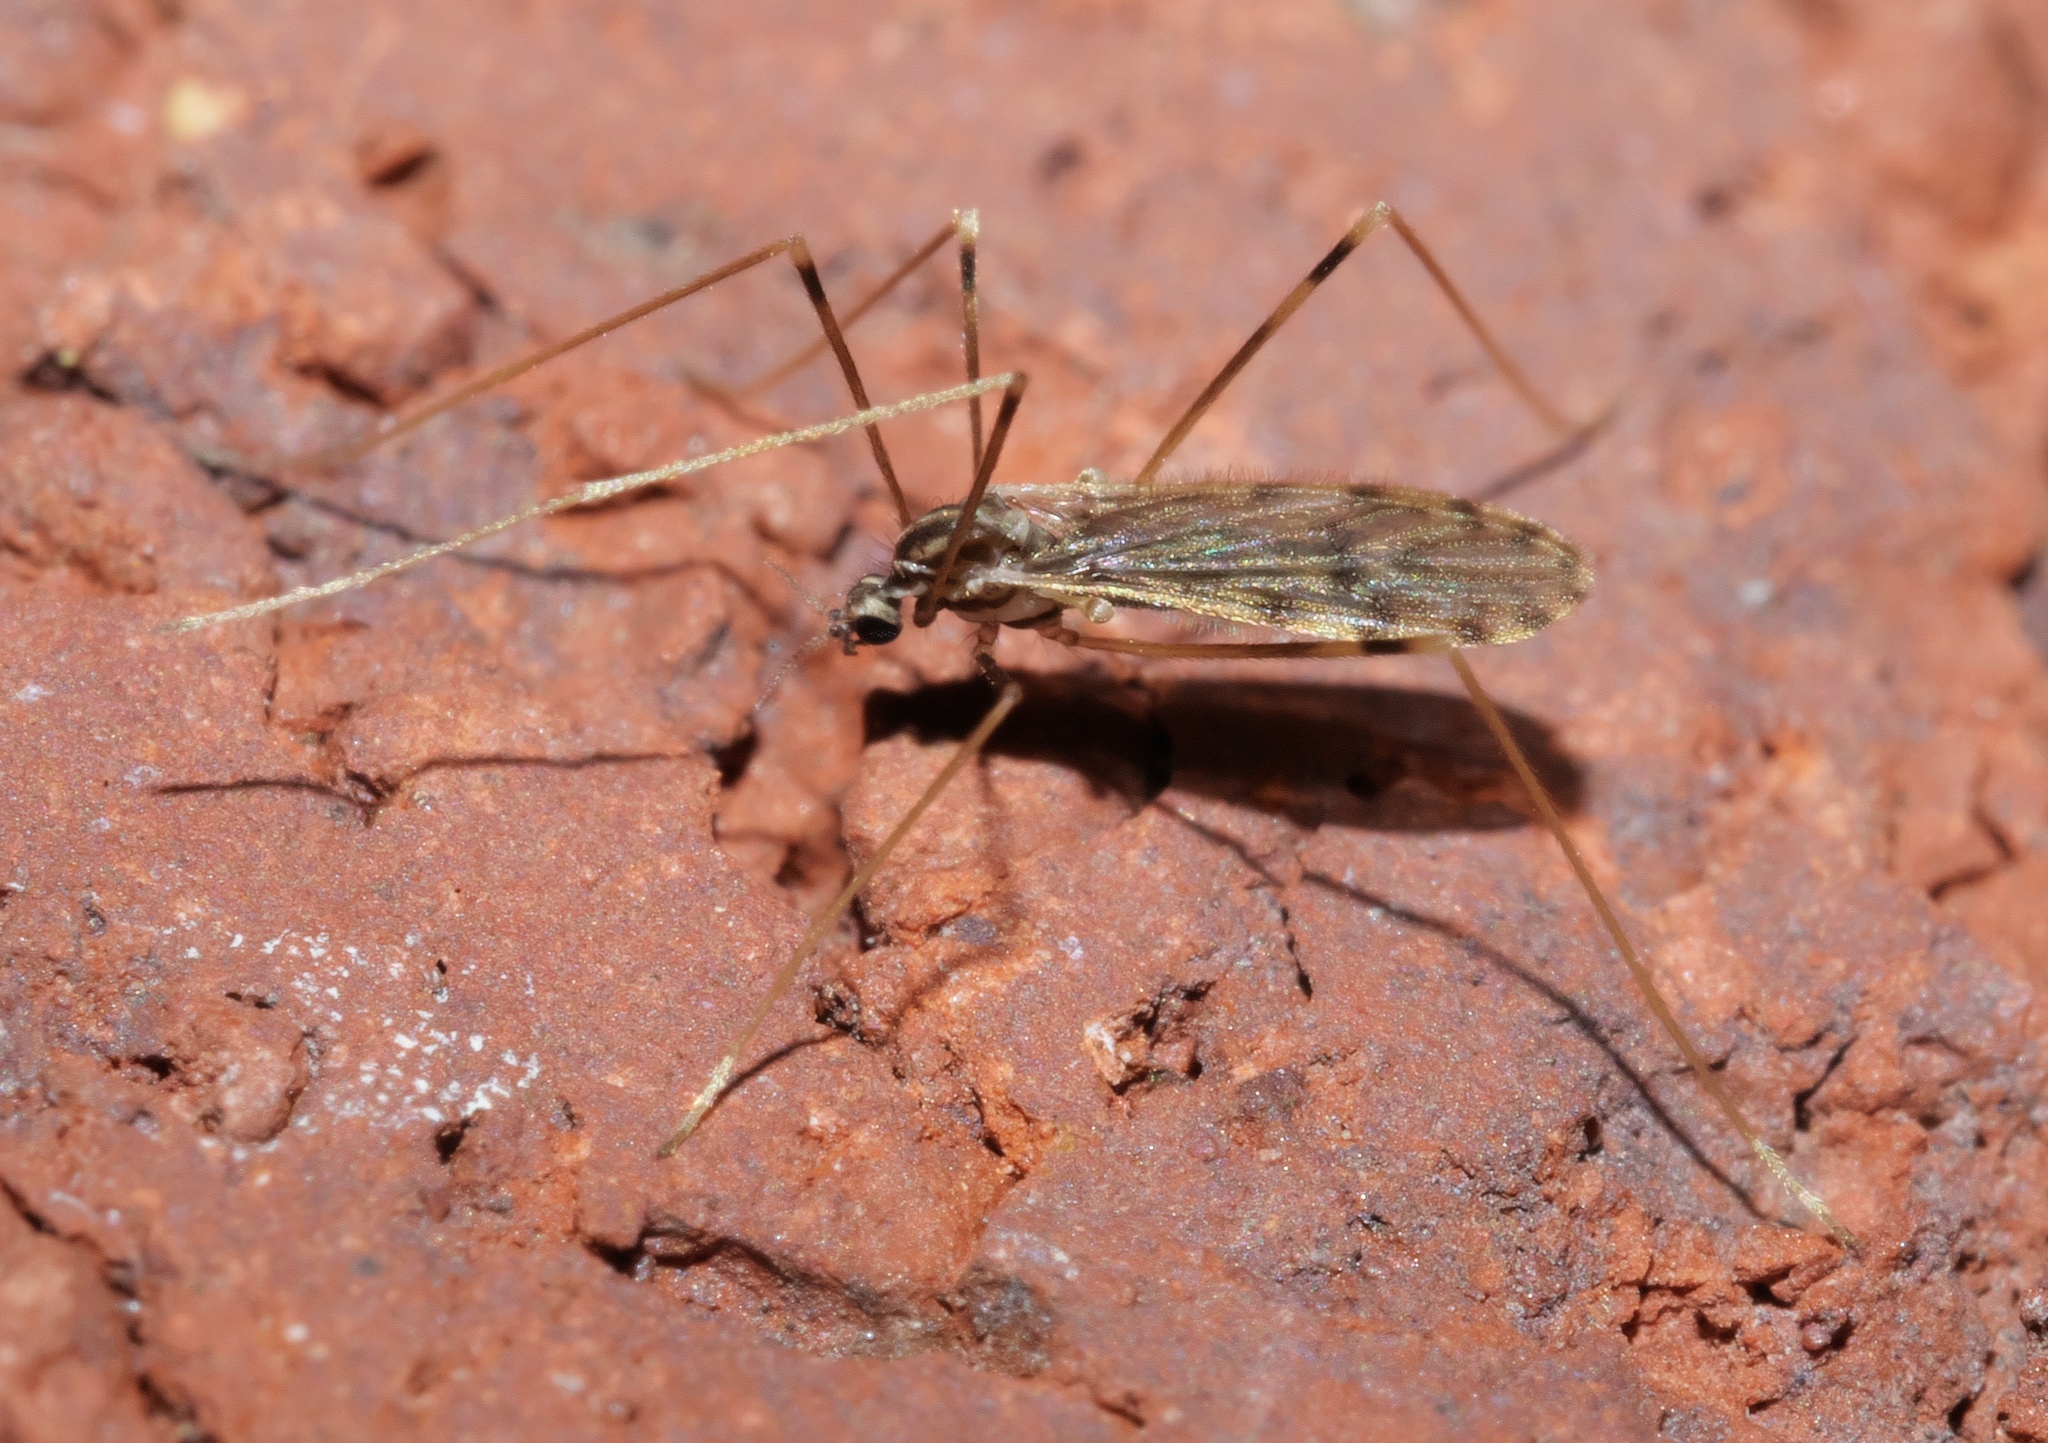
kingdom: Animalia
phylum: Arthropoda
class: Insecta
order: Diptera
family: Limoniidae
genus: Erioptera
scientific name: Erioptera parva
